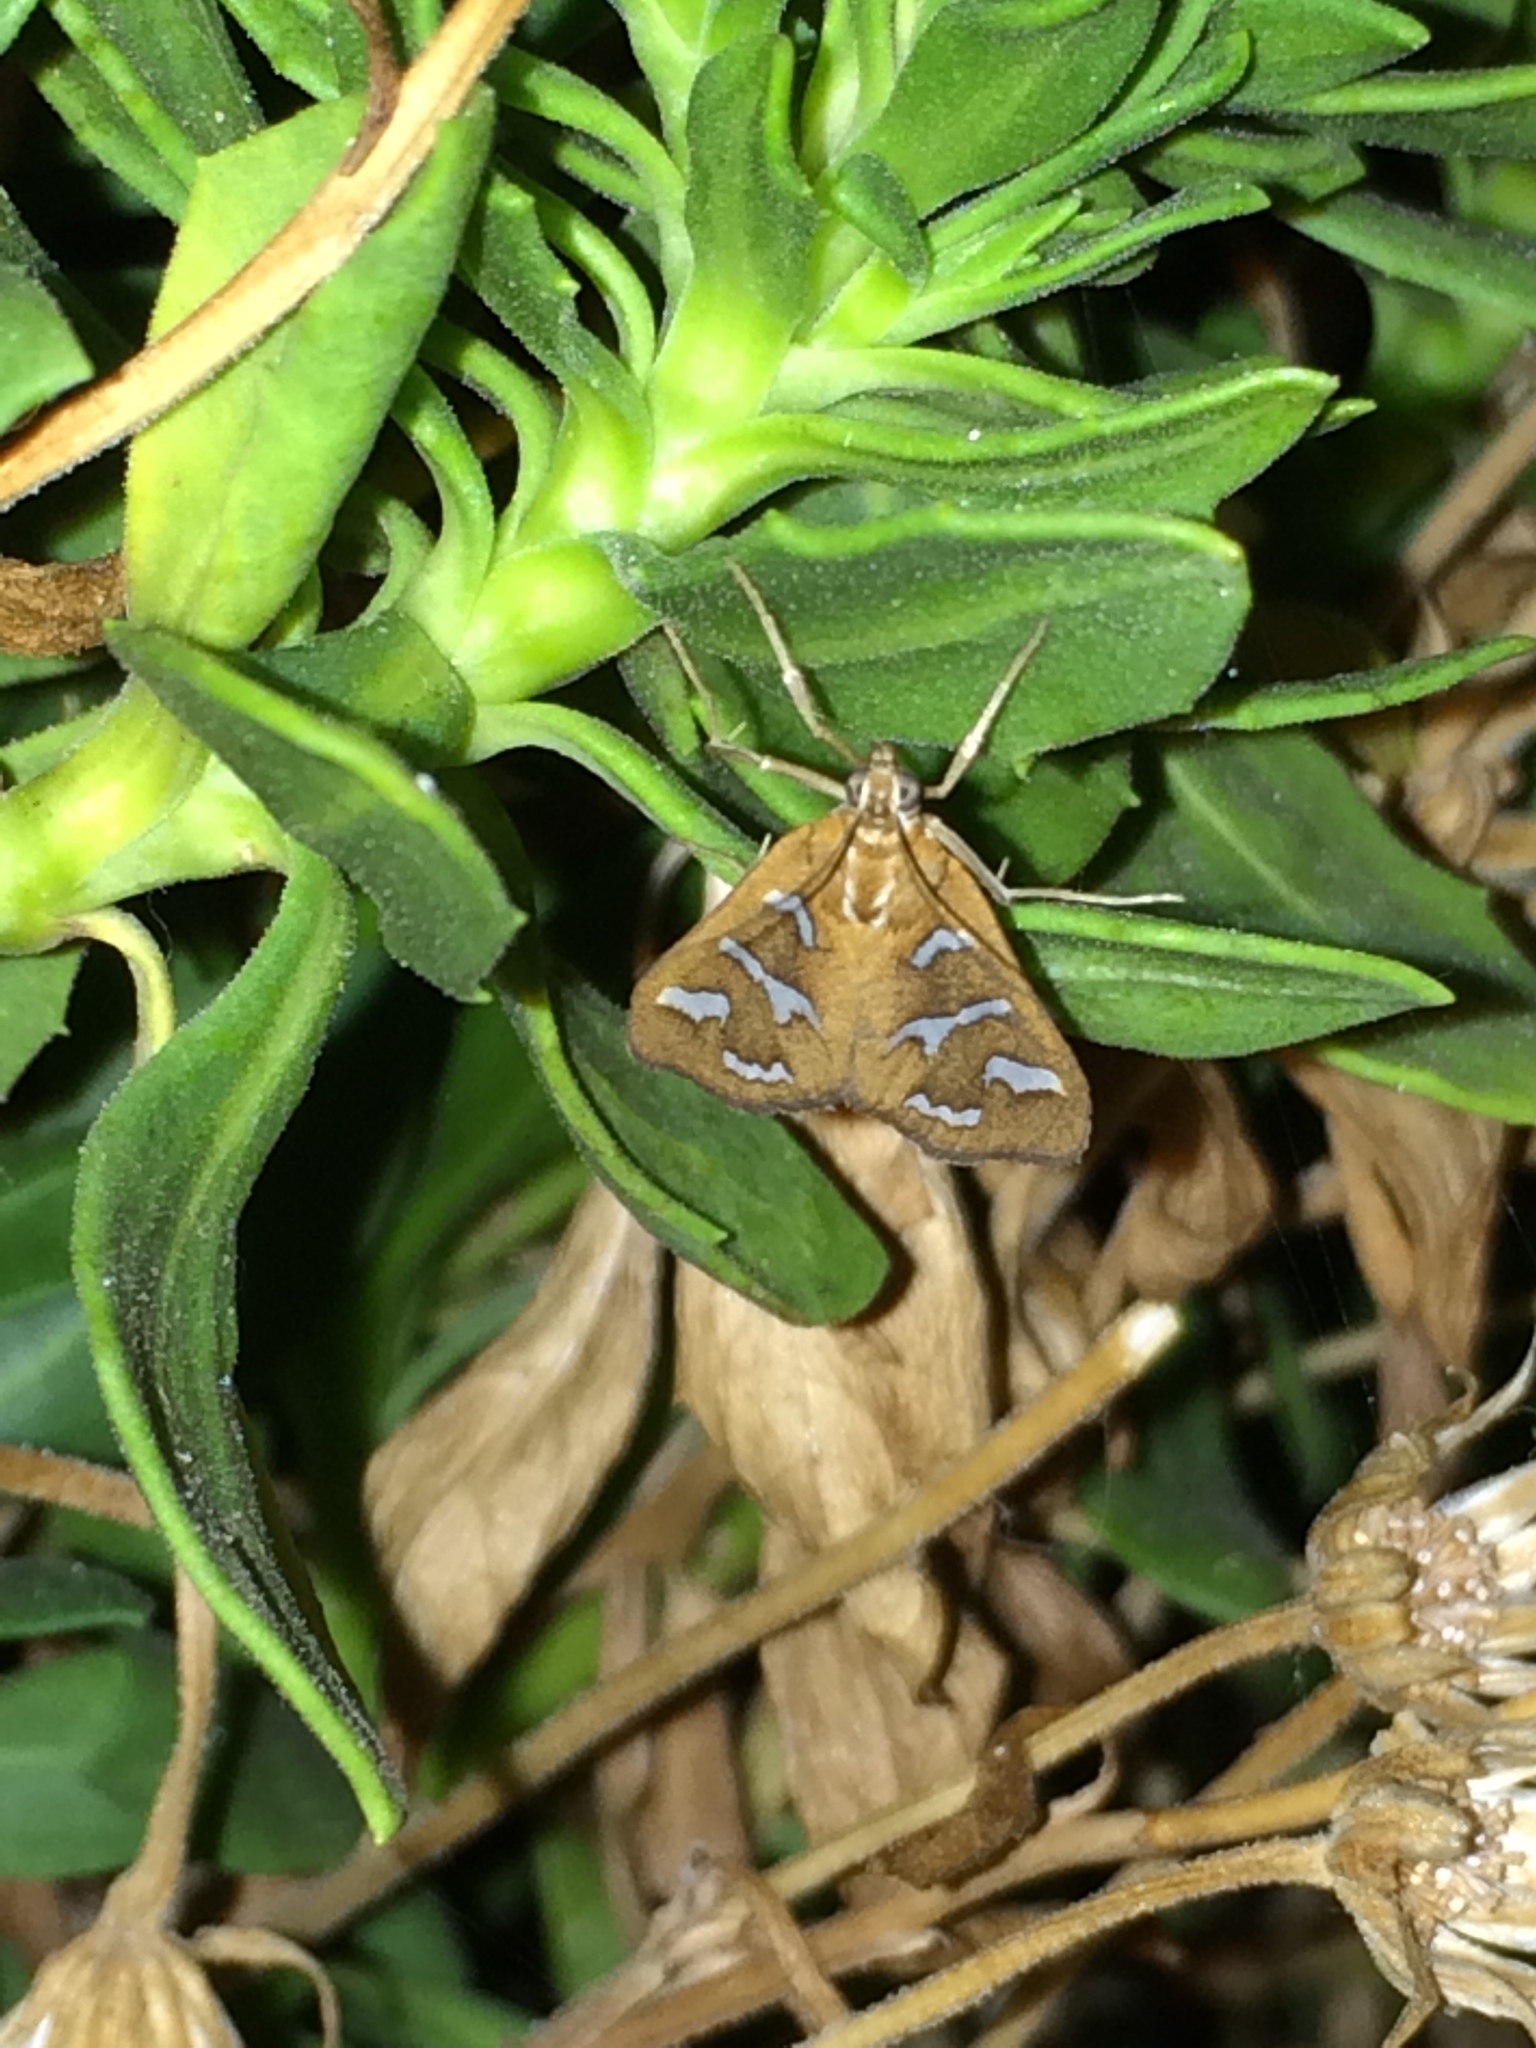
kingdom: Animalia
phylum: Arthropoda
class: Insecta
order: Lepidoptera
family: Crambidae
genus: Diastictis
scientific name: Diastictis fracturalis
